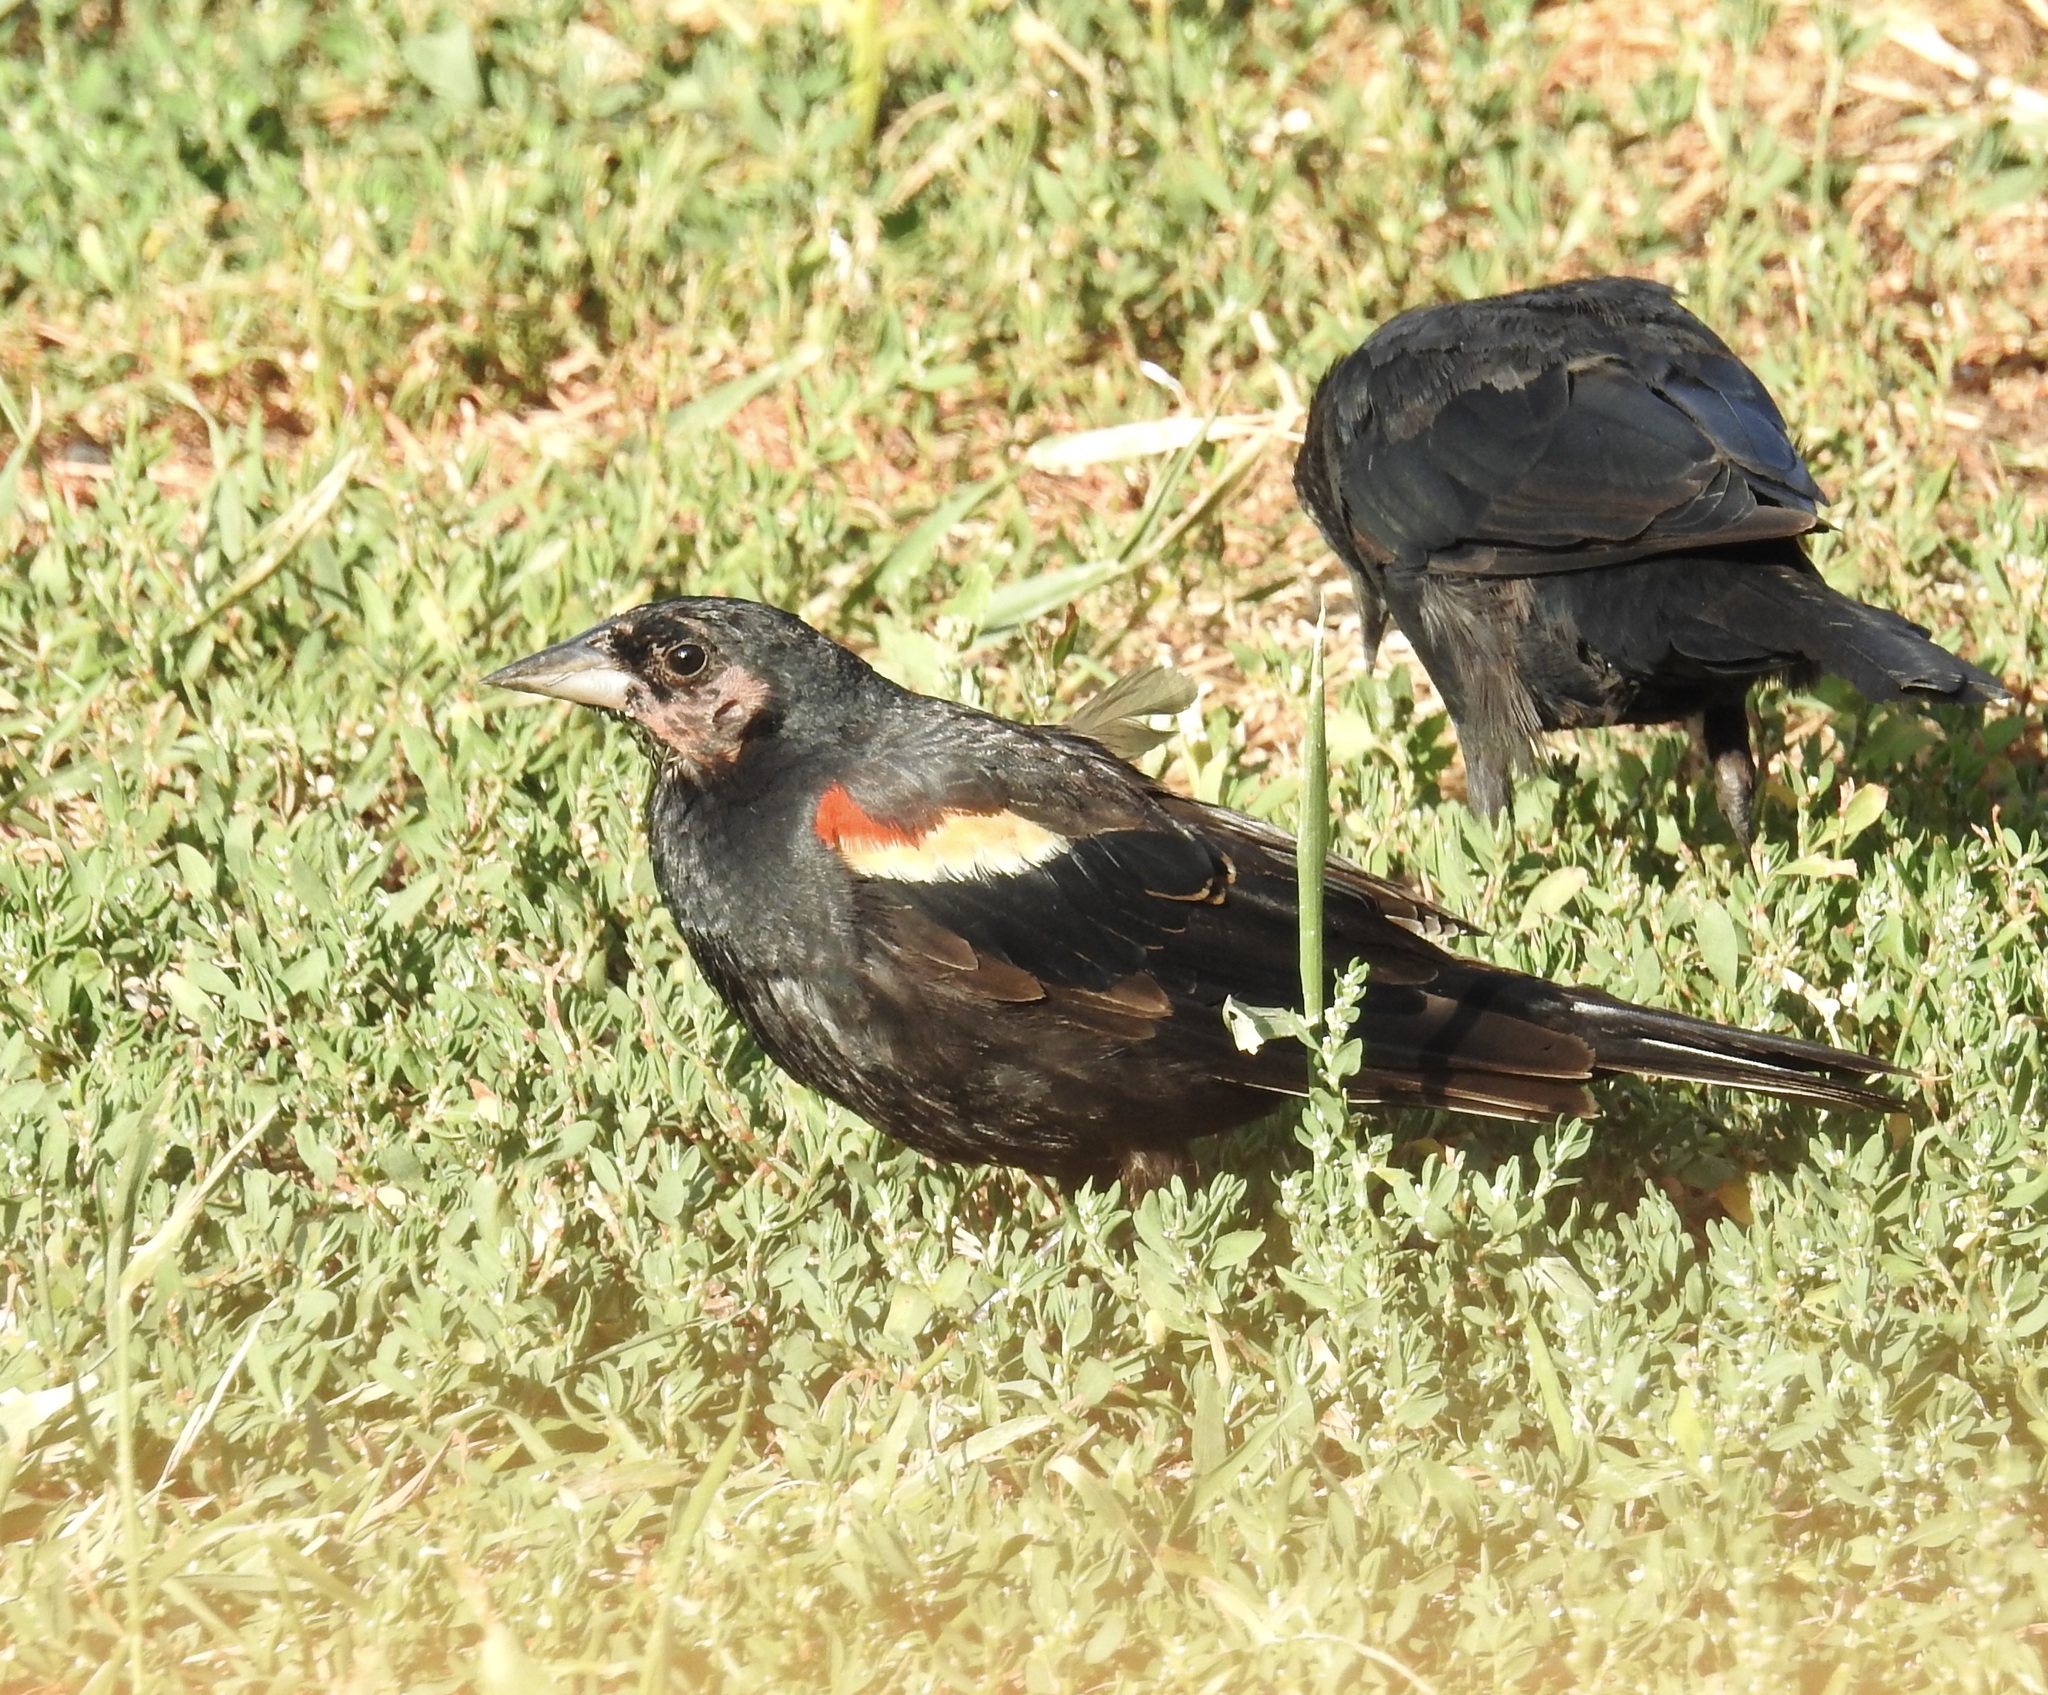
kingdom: Animalia
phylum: Chordata
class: Aves
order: Passeriformes
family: Icteridae
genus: Agelaius
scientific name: Agelaius phoeniceus
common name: Red-winged blackbird
